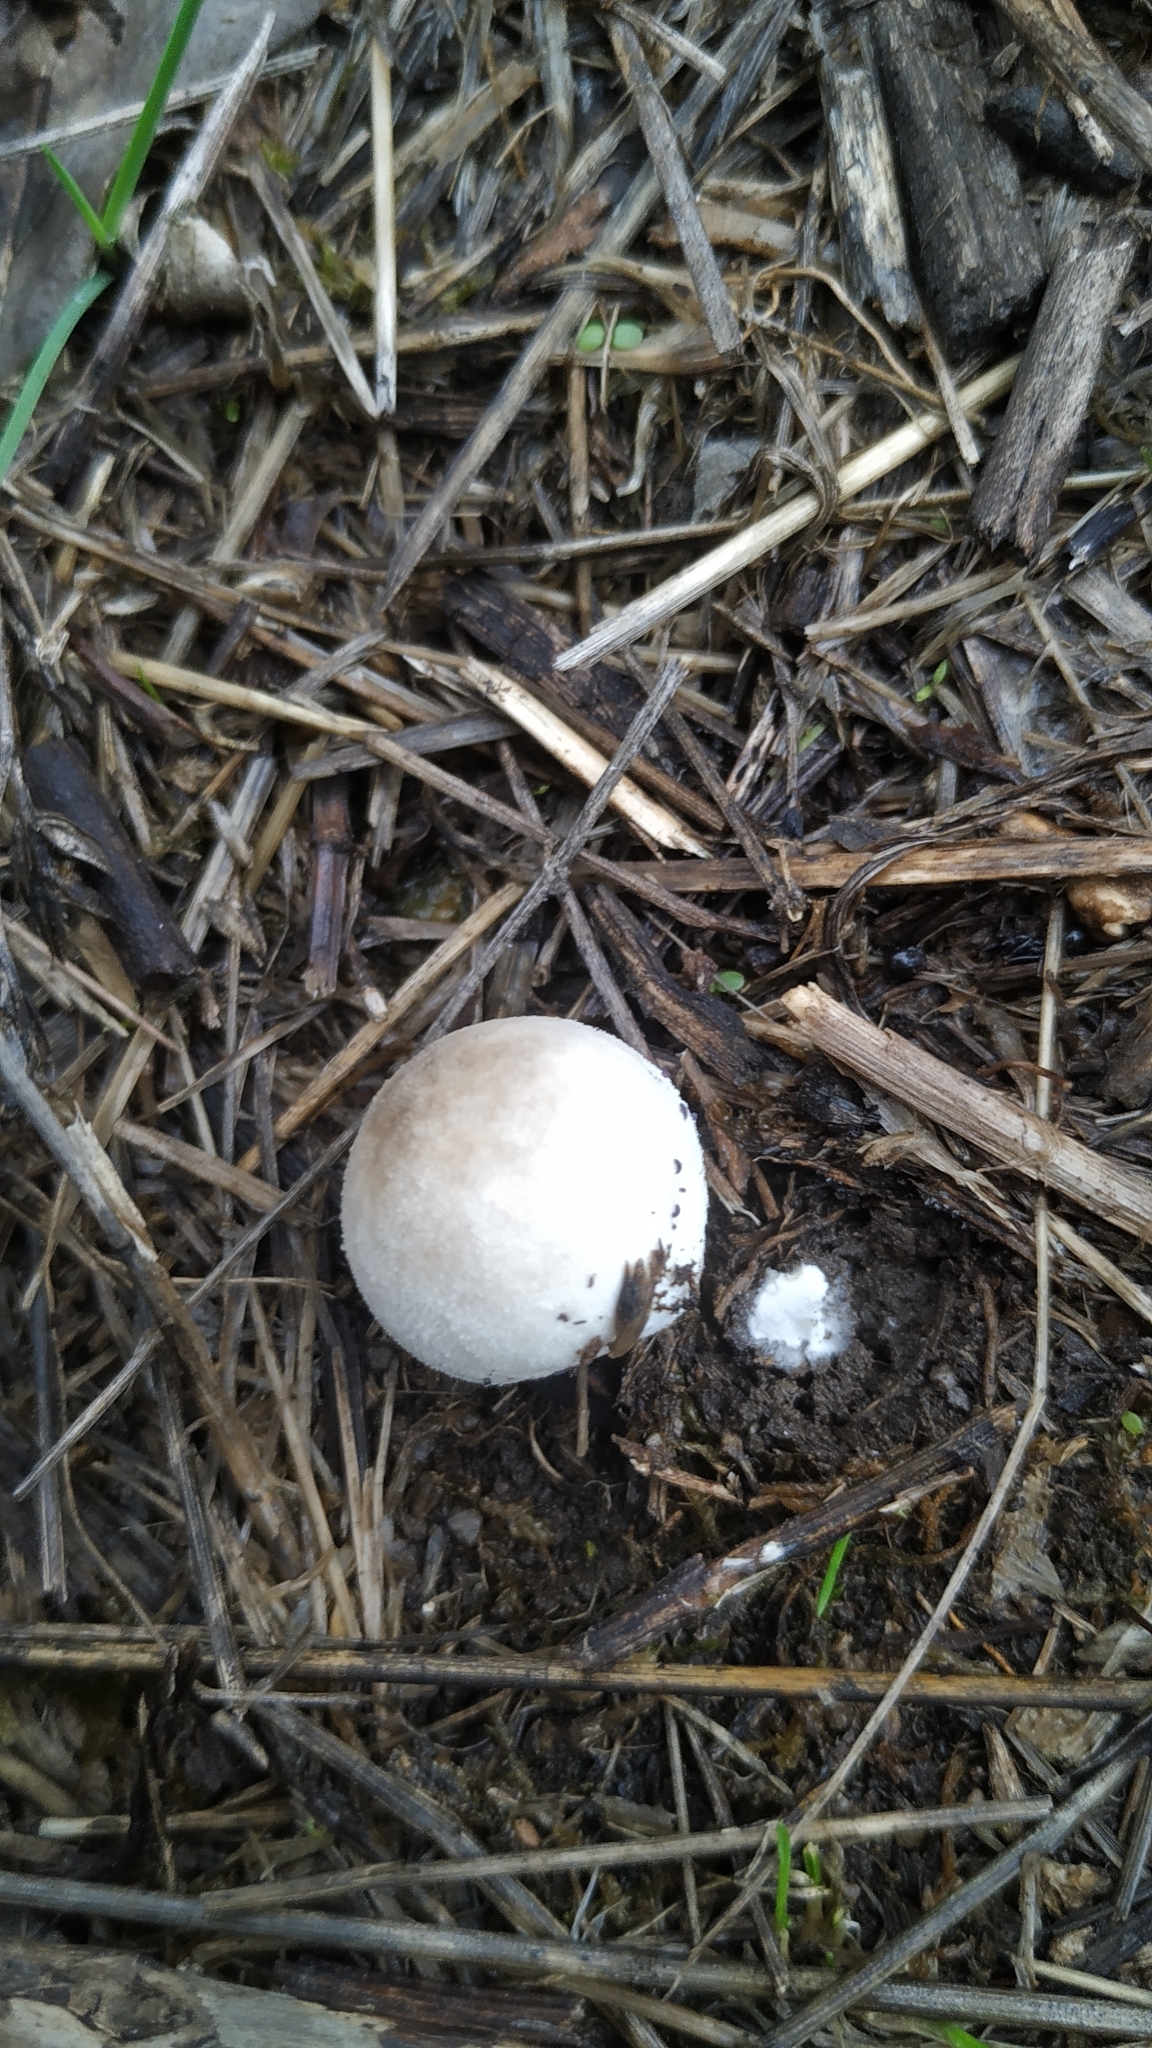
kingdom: Fungi
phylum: Basidiomycota
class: Agaricomycetes
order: Agaricales
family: Lycoperdaceae
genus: Lycoperdon
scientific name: Lycoperdon pratense
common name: Meadow puffball
